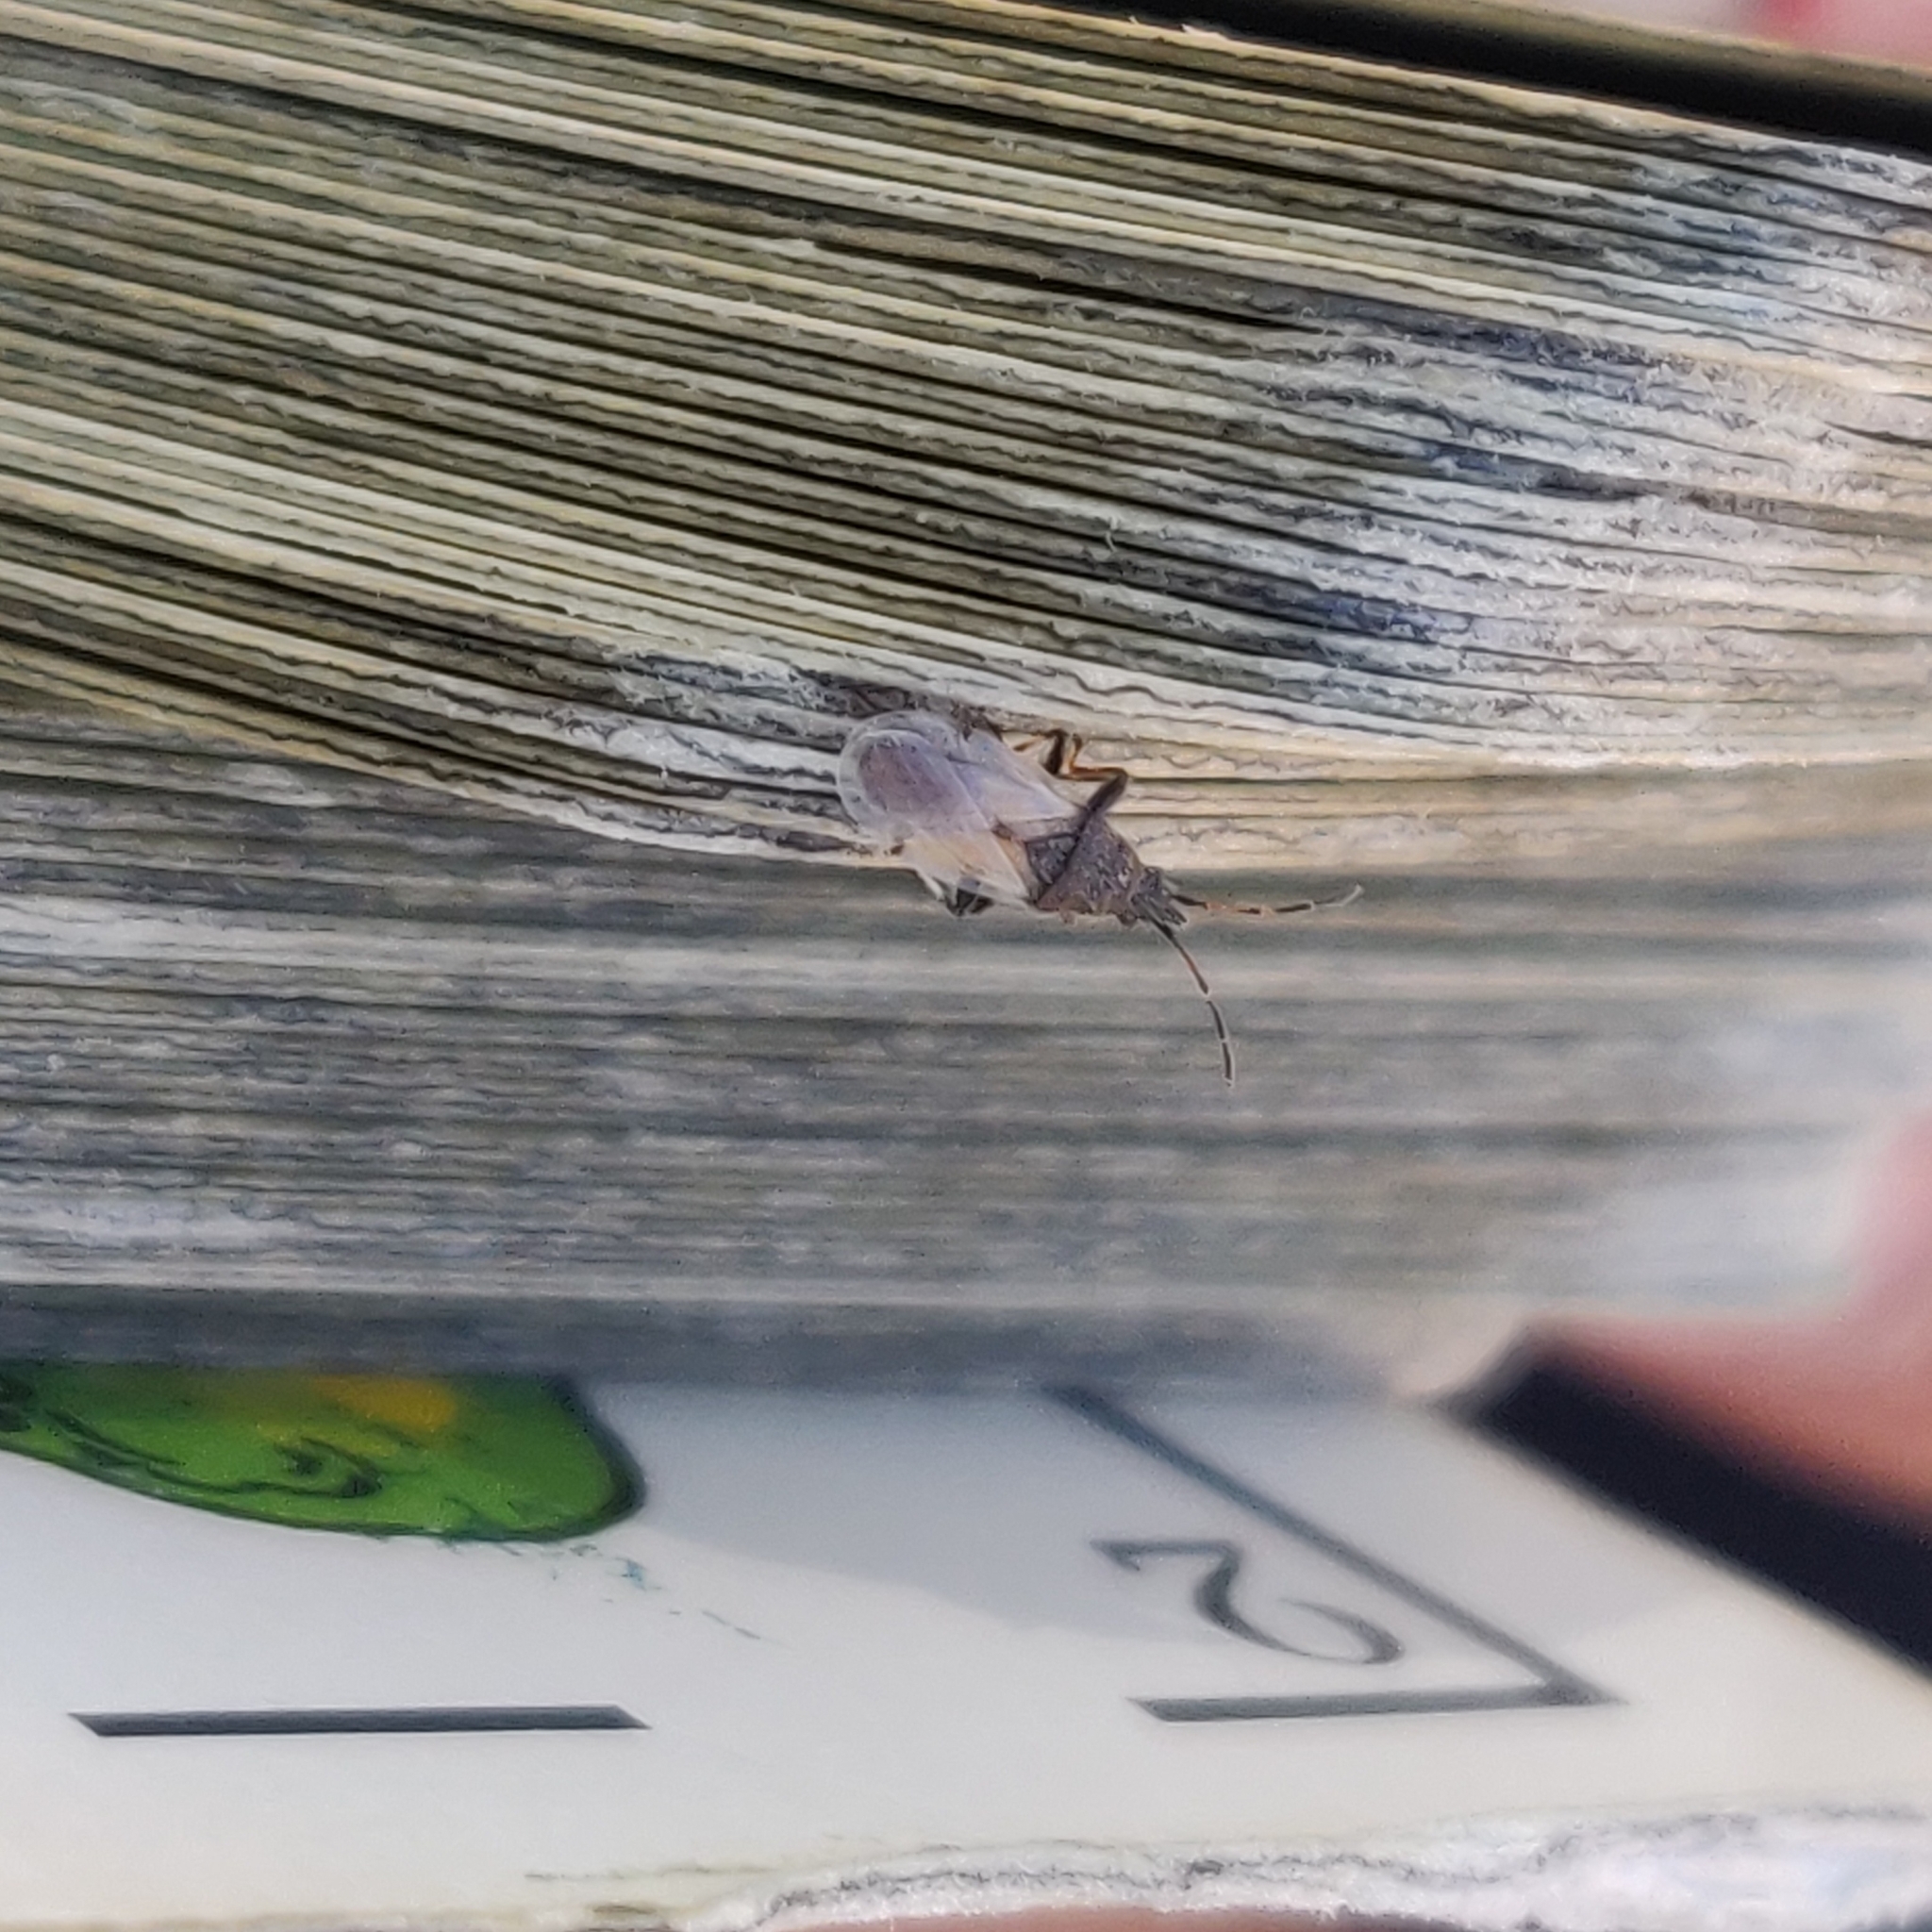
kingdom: Animalia
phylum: Arthropoda
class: Insecta
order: Hemiptera
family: Oxycarenidae
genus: Oxycarenus
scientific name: Oxycarenus hyalinipennis
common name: Cotton seed bug
